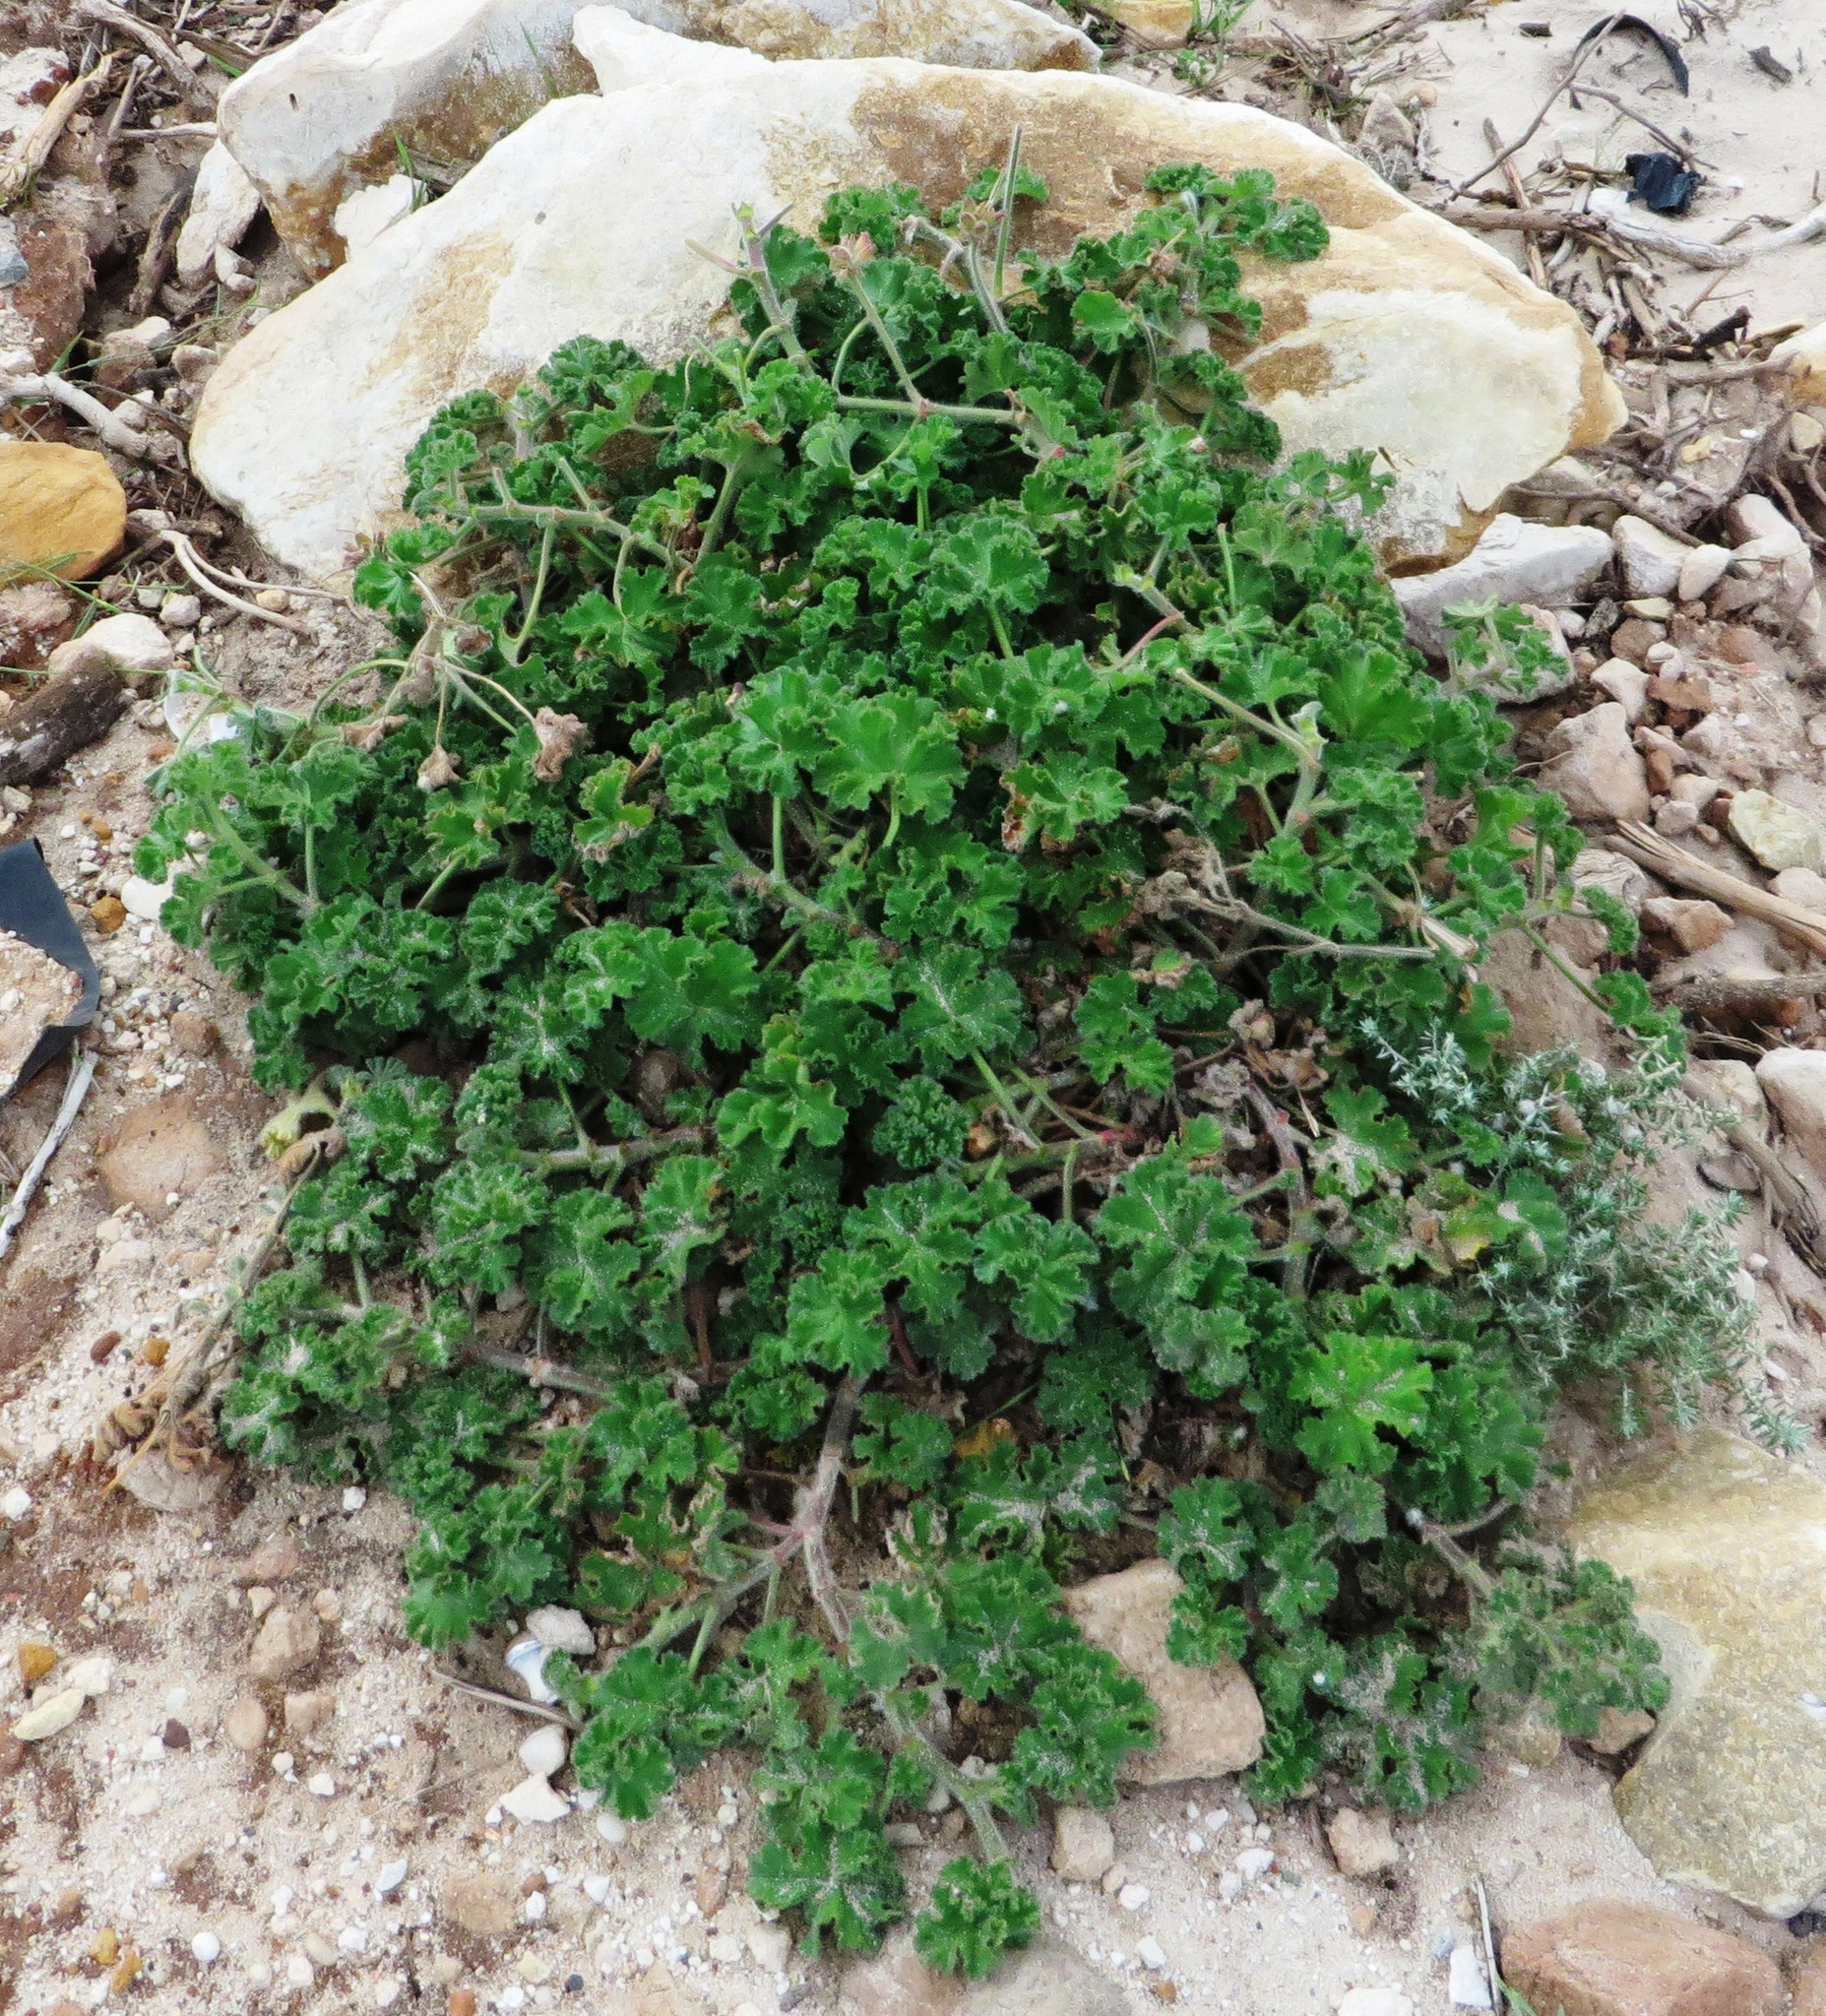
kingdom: Plantae
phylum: Tracheophyta
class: Magnoliopsida
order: Geraniales
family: Geraniaceae
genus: Pelargonium
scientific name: Pelargonium capitatum
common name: Rose scented geranium
